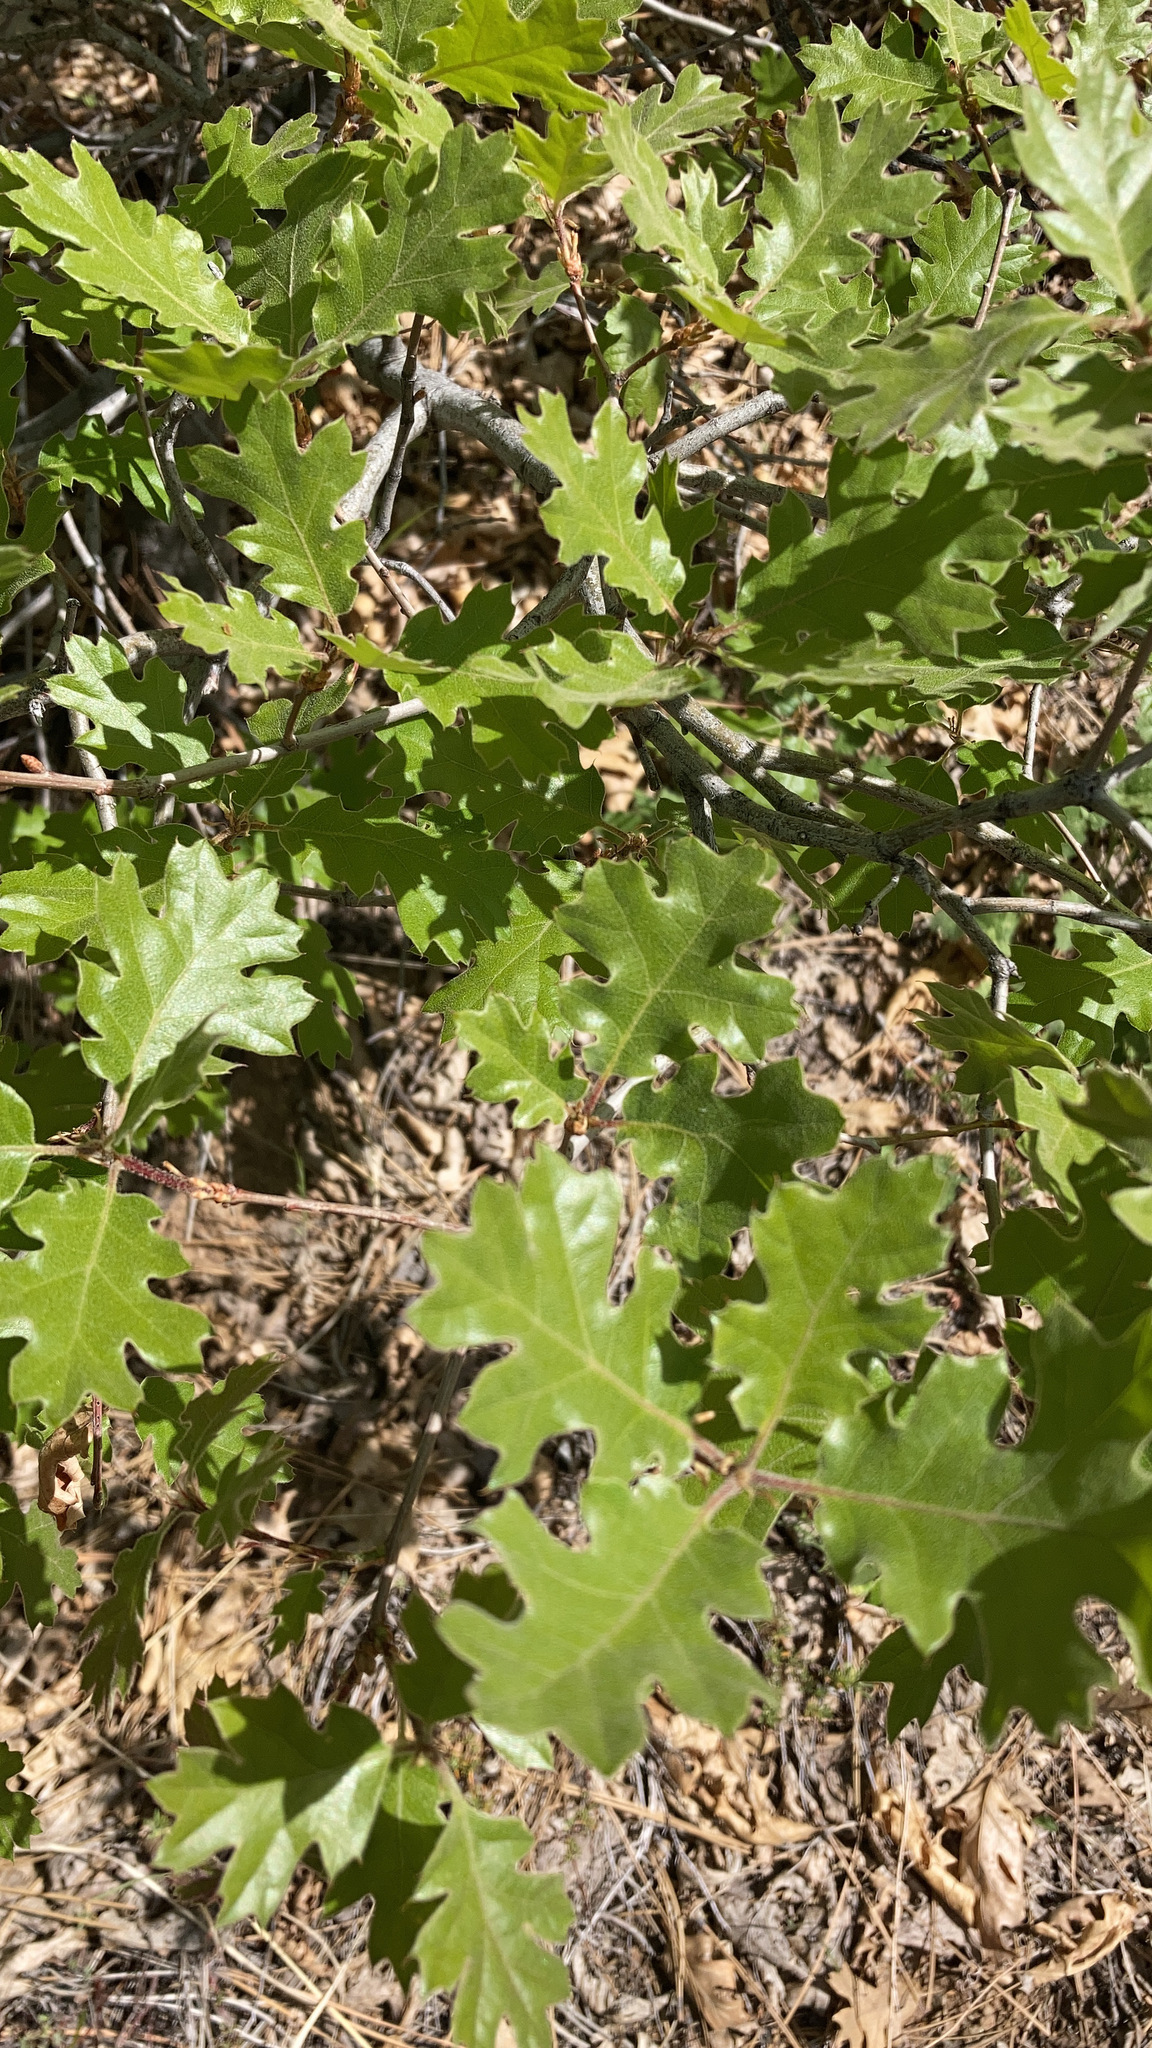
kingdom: Plantae
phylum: Tracheophyta
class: Magnoliopsida
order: Fagales
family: Fagaceae
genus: Quercus
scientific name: Quercus kelloggii
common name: California black oak
